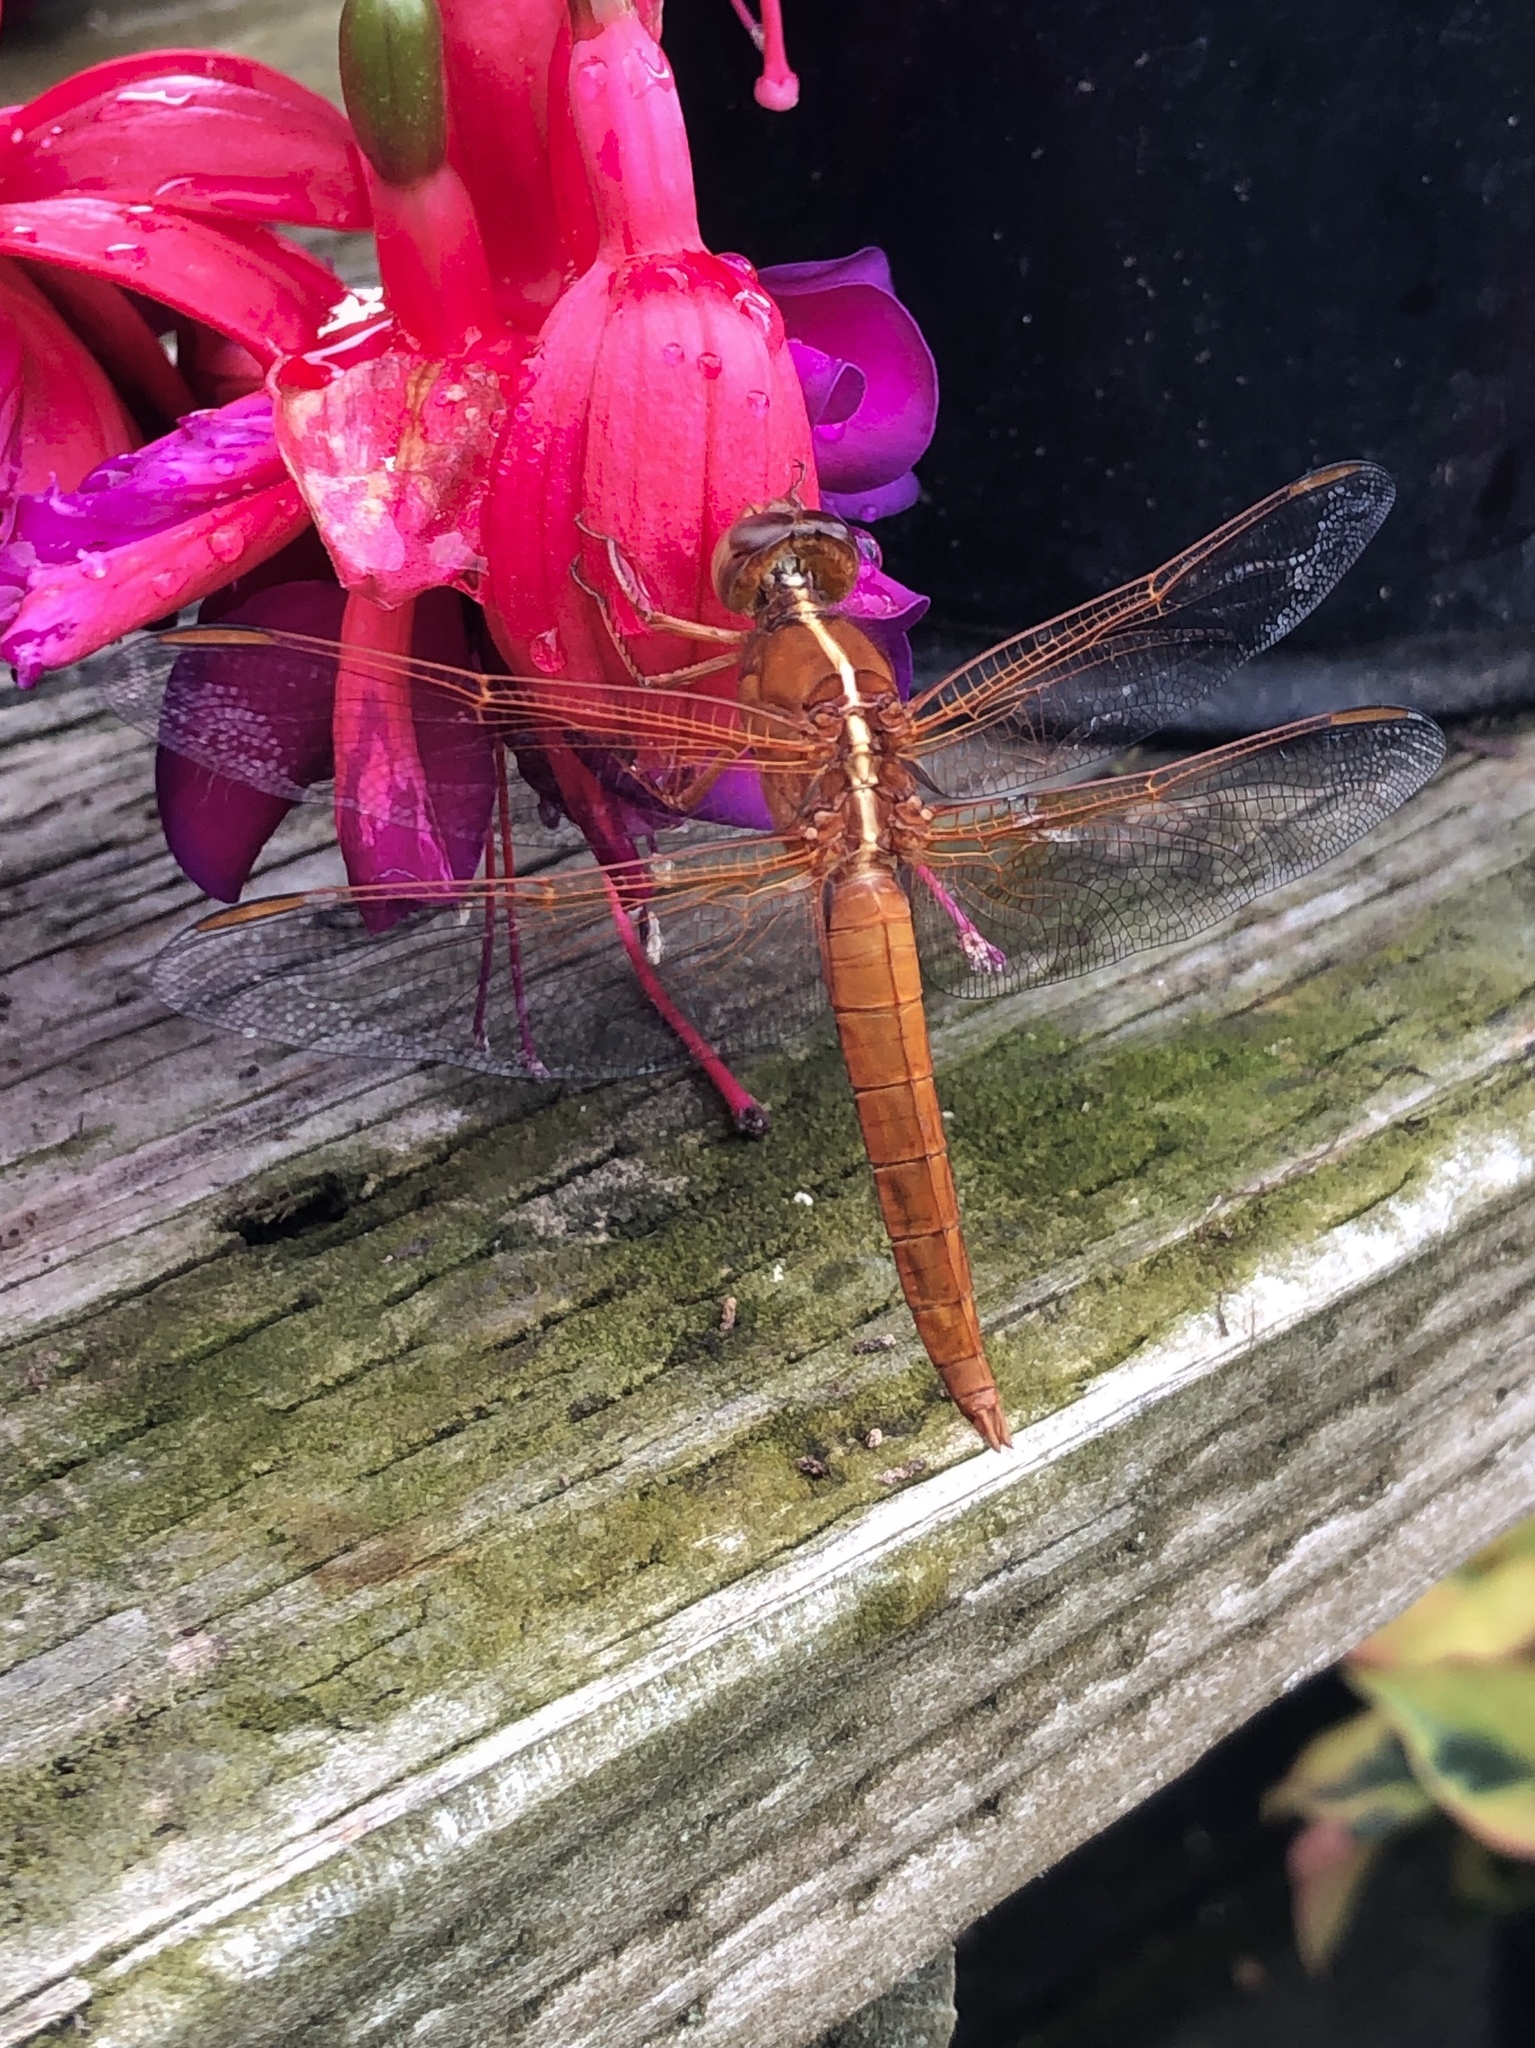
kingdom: Animalia
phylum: Arthropoda
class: Insecta
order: Odonata
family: Libellulidae
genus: Libellula
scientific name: Libellula saturata
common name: Flame skimmer
